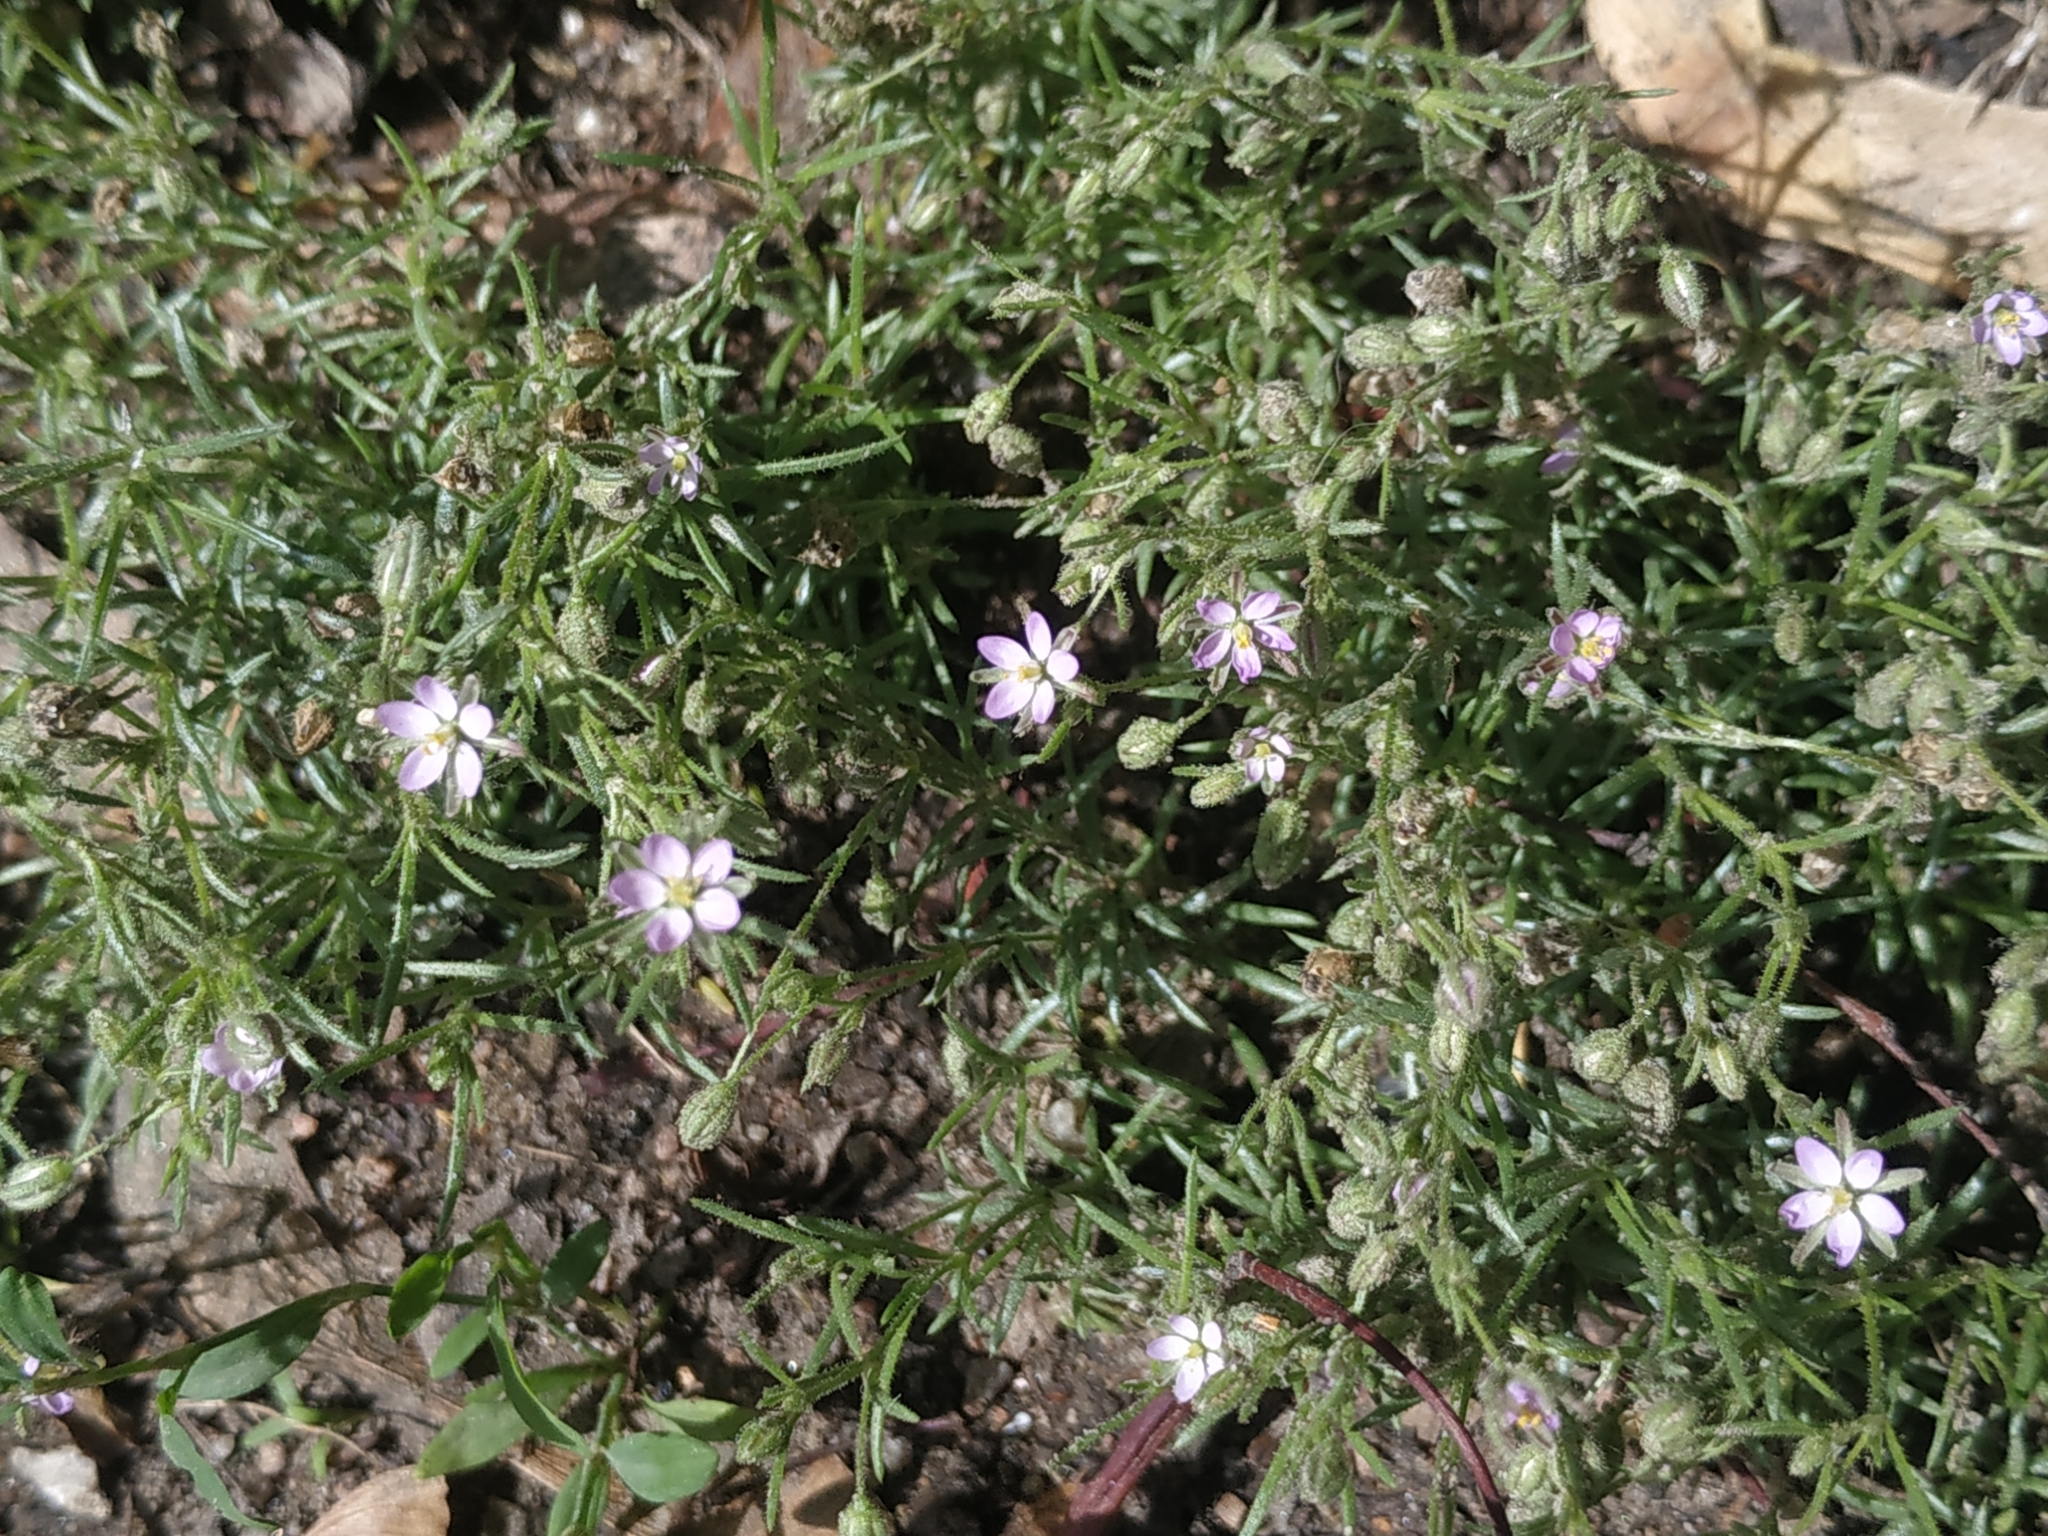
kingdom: Plantae
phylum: Tracheophyta
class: Magnoliopsida
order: Caryophyllales
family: Caryophyllaceae
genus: Spergularia
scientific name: Spergularia rubra
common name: Red sand-spurrey
